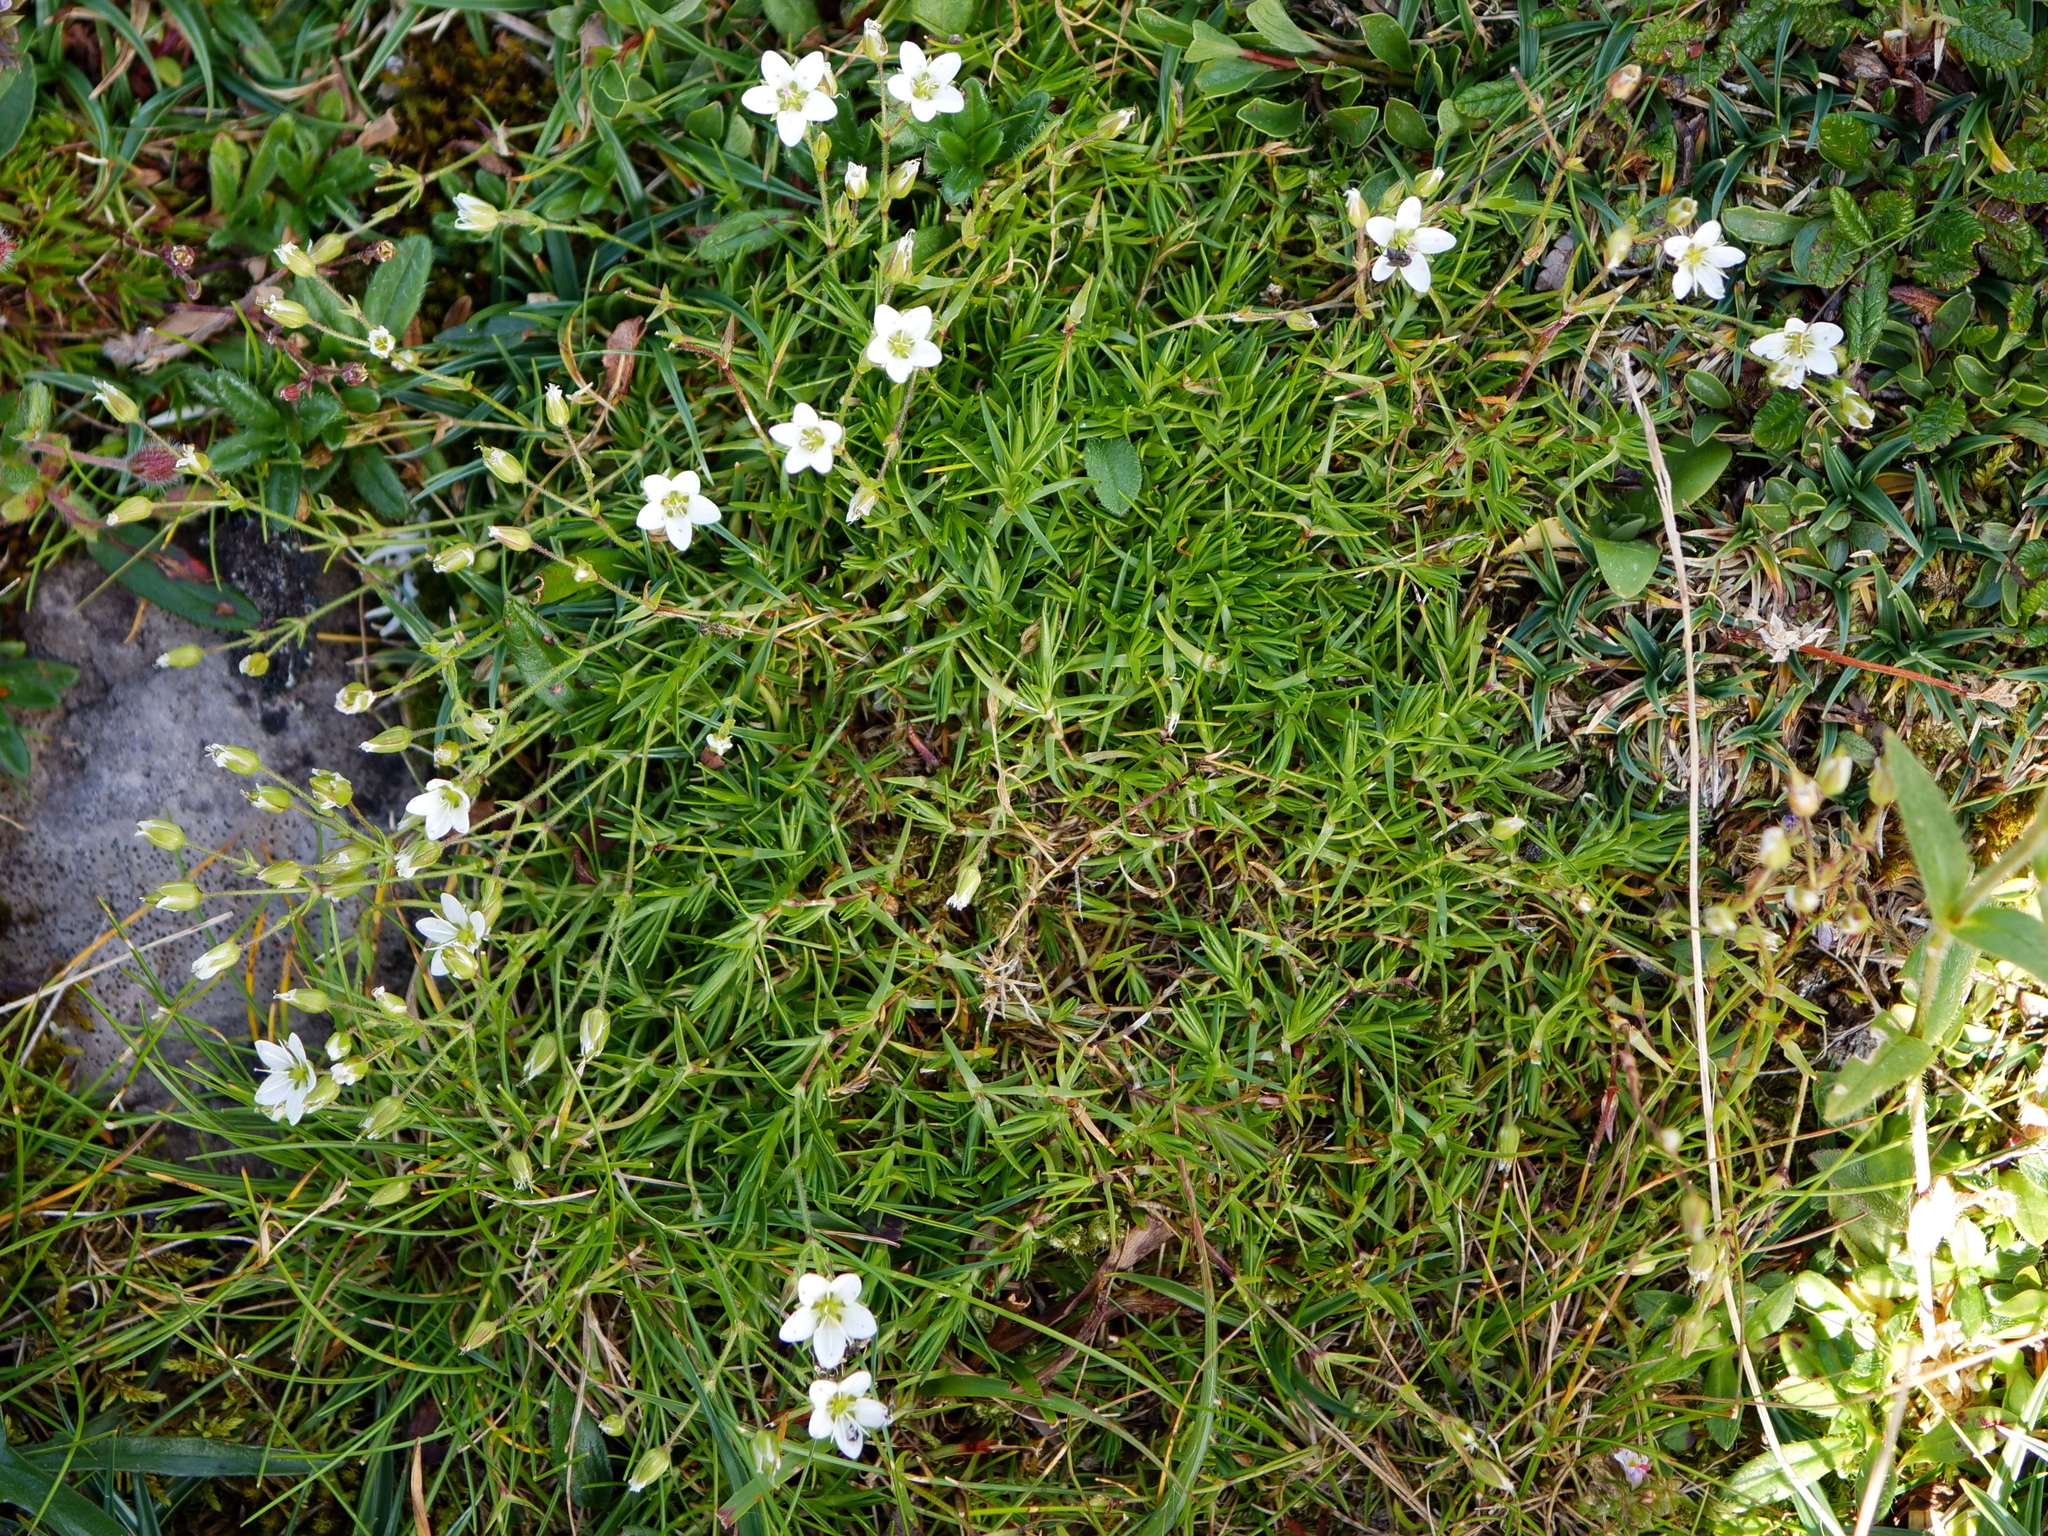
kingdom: Plantae
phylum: Tracheophyta
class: Magnoliopsida
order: Caryophyllales
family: Caryophyllaceae
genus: Sabulina
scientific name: Sabulina verna
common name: Spring sandwort
